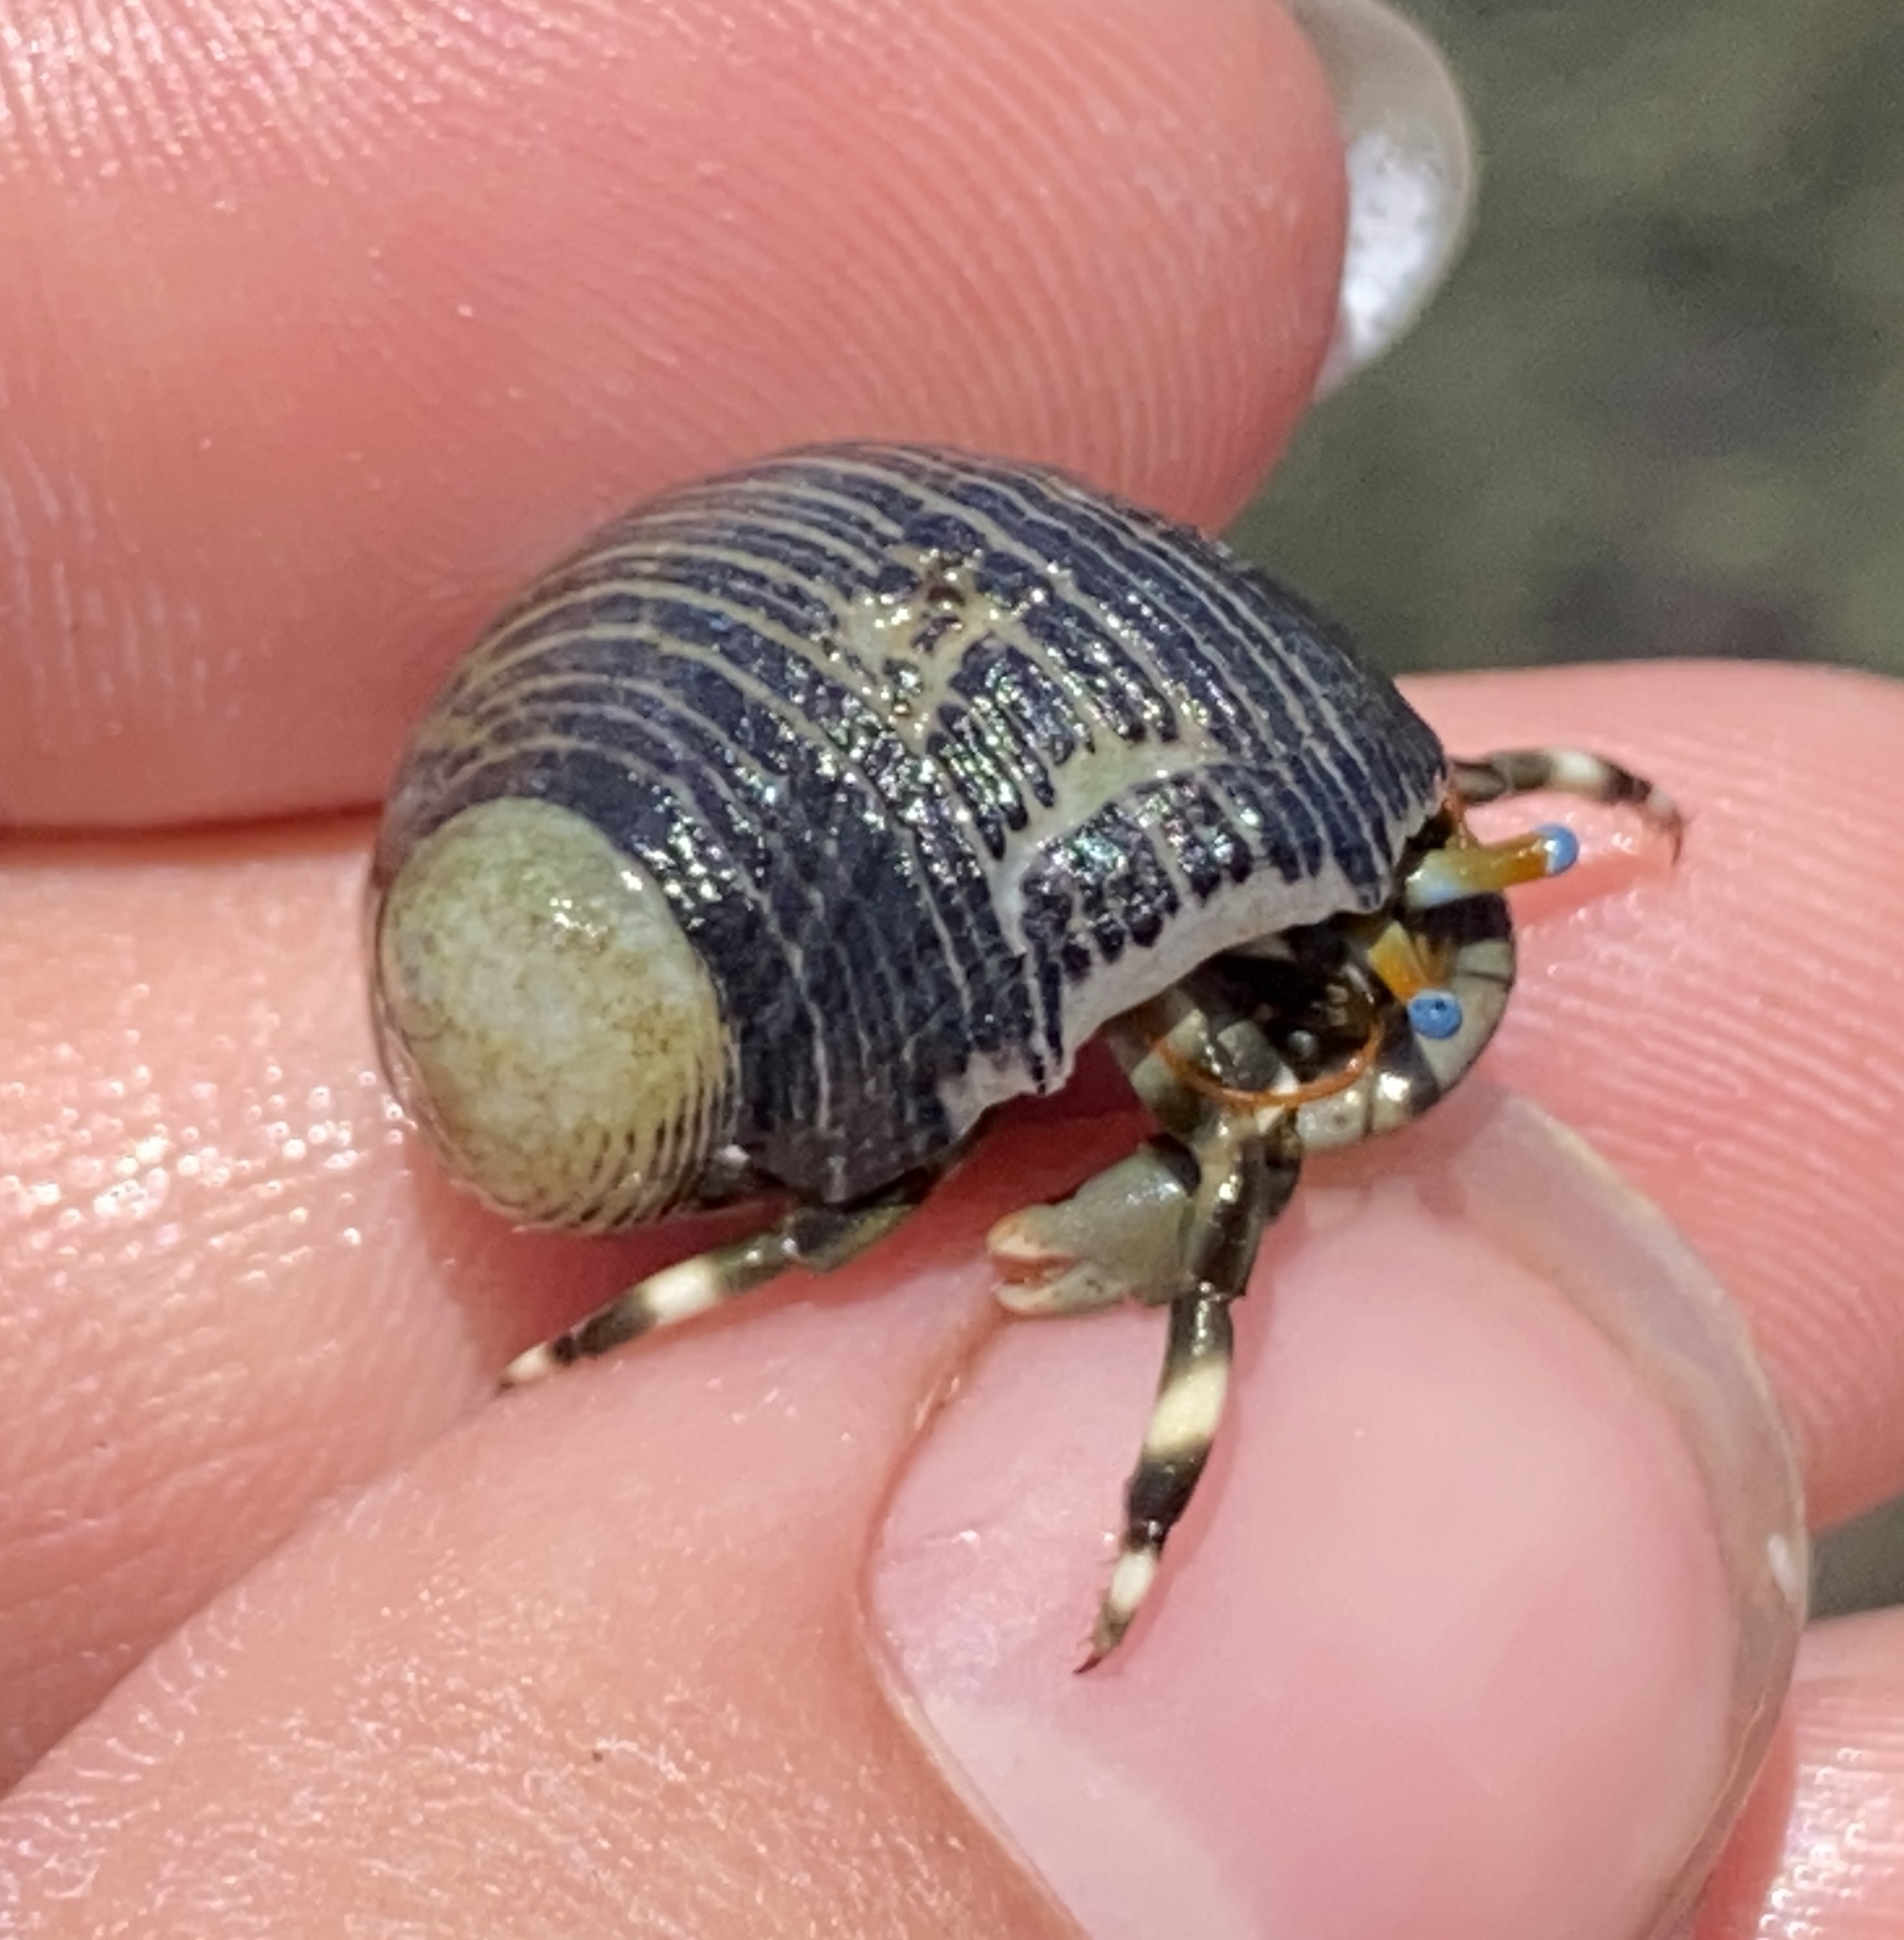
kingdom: Animalia
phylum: Mollusca
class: Gastropoda
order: Cycloneritida
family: Neritidae
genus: Nerita
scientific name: Nerita picea
